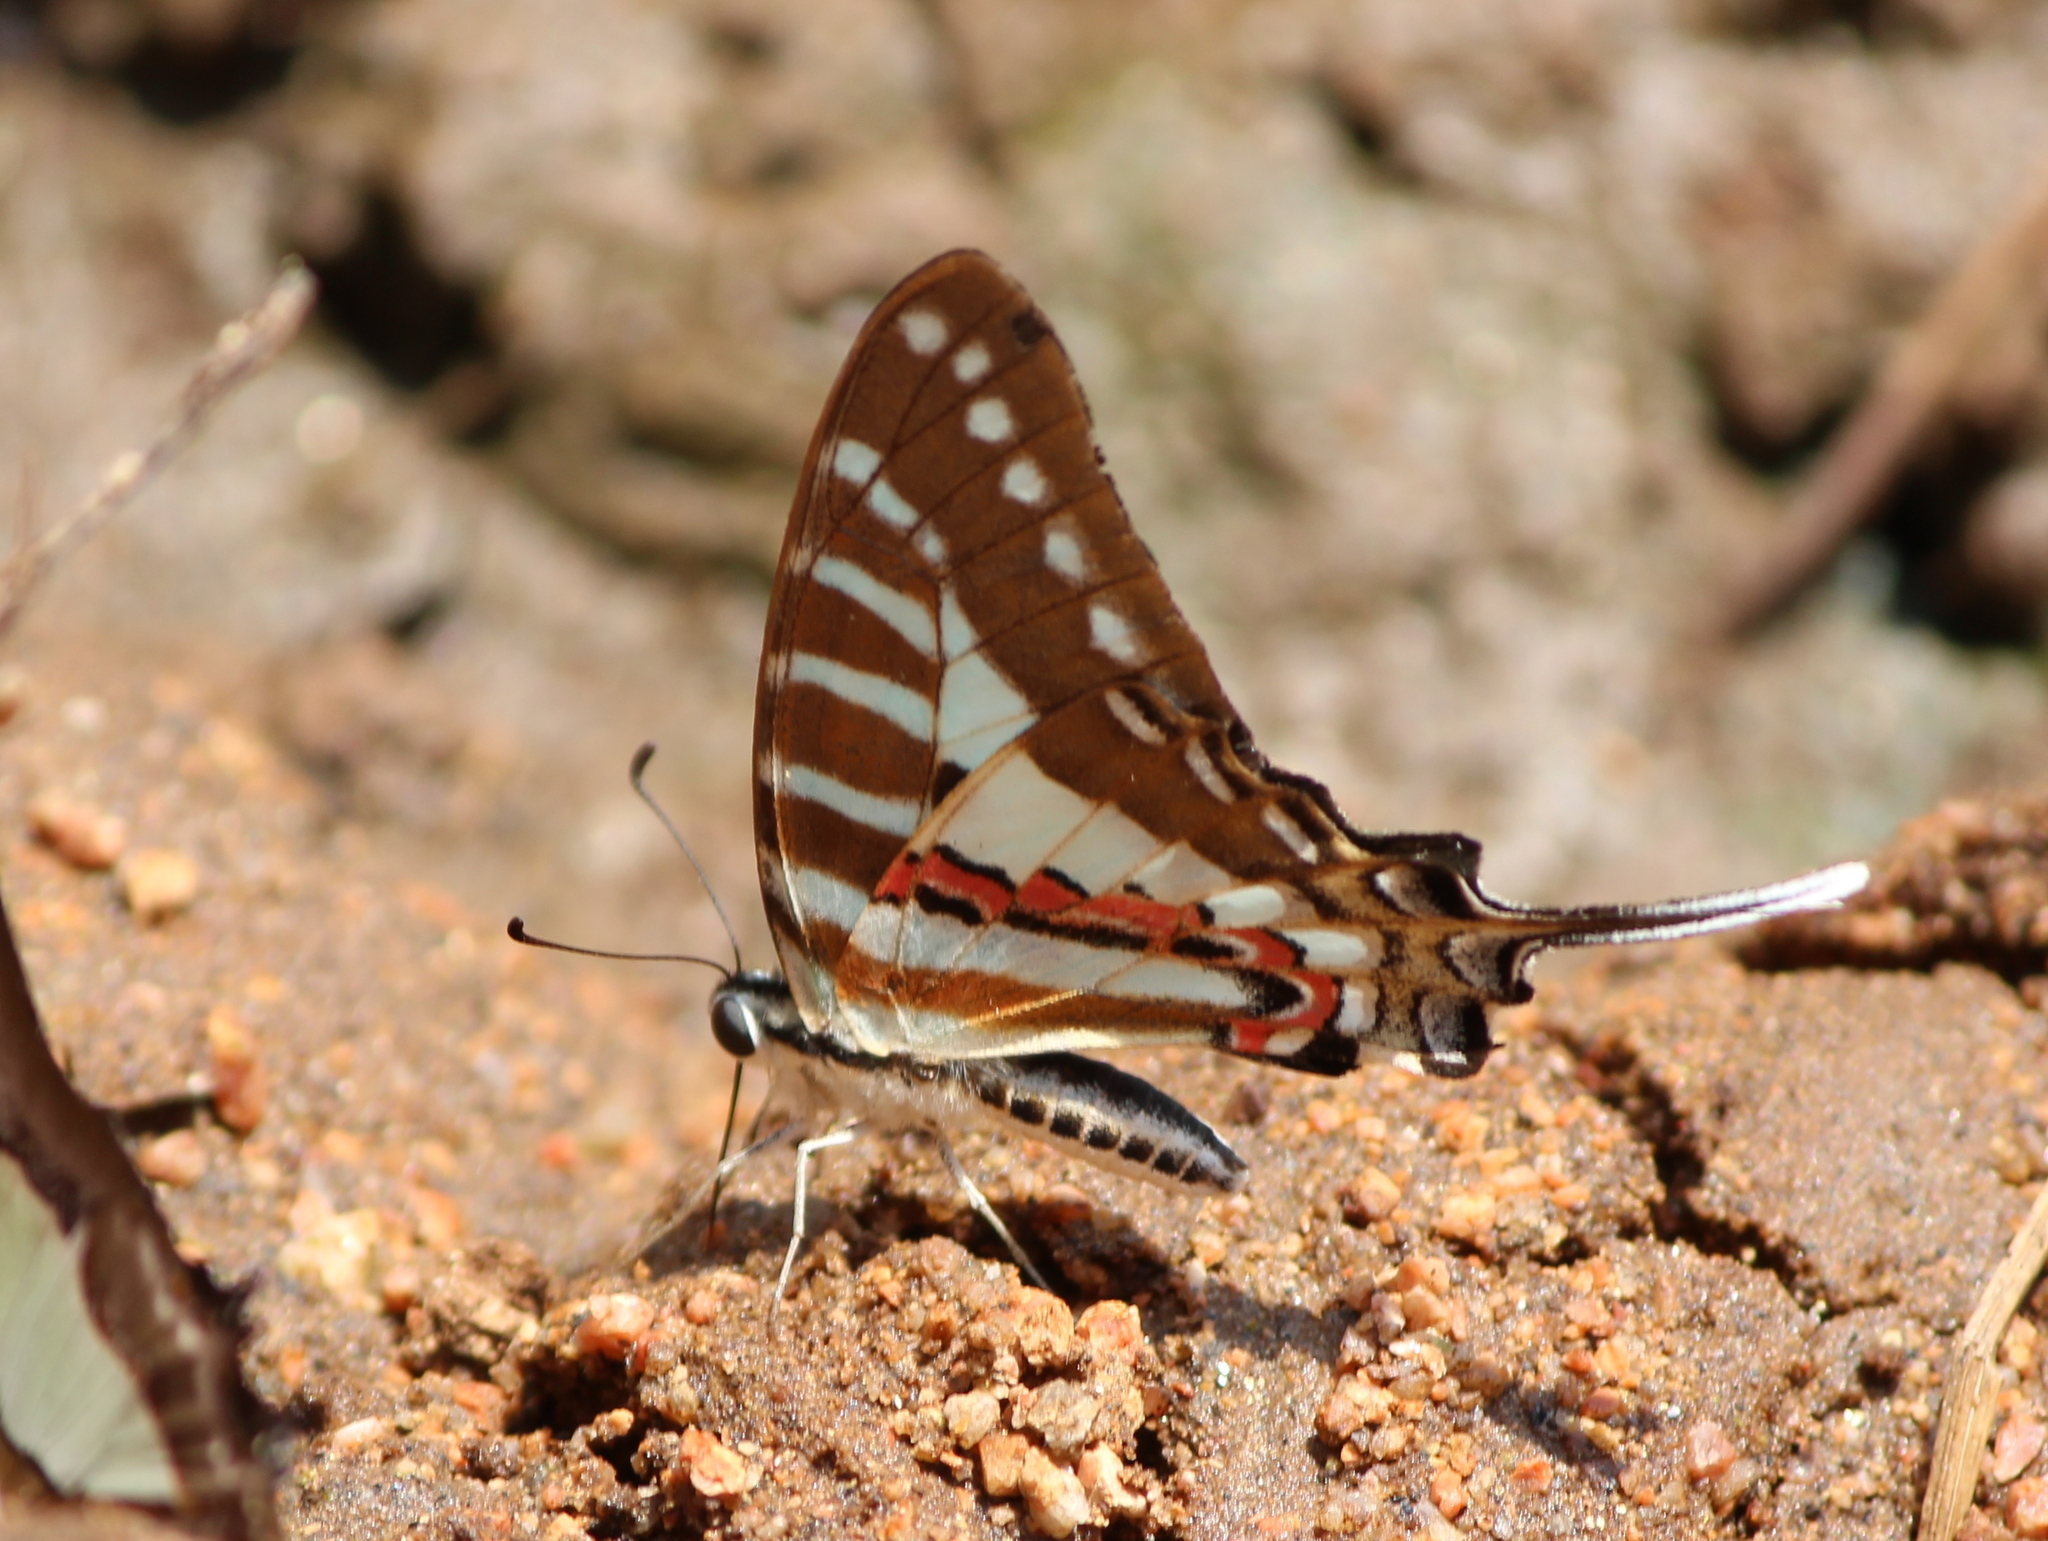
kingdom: Animalia
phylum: Arthropoda
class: Insecta
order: Lepidoptera
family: Papilionidae
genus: Graphium
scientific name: Graphium nomius
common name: Spot swordtail
